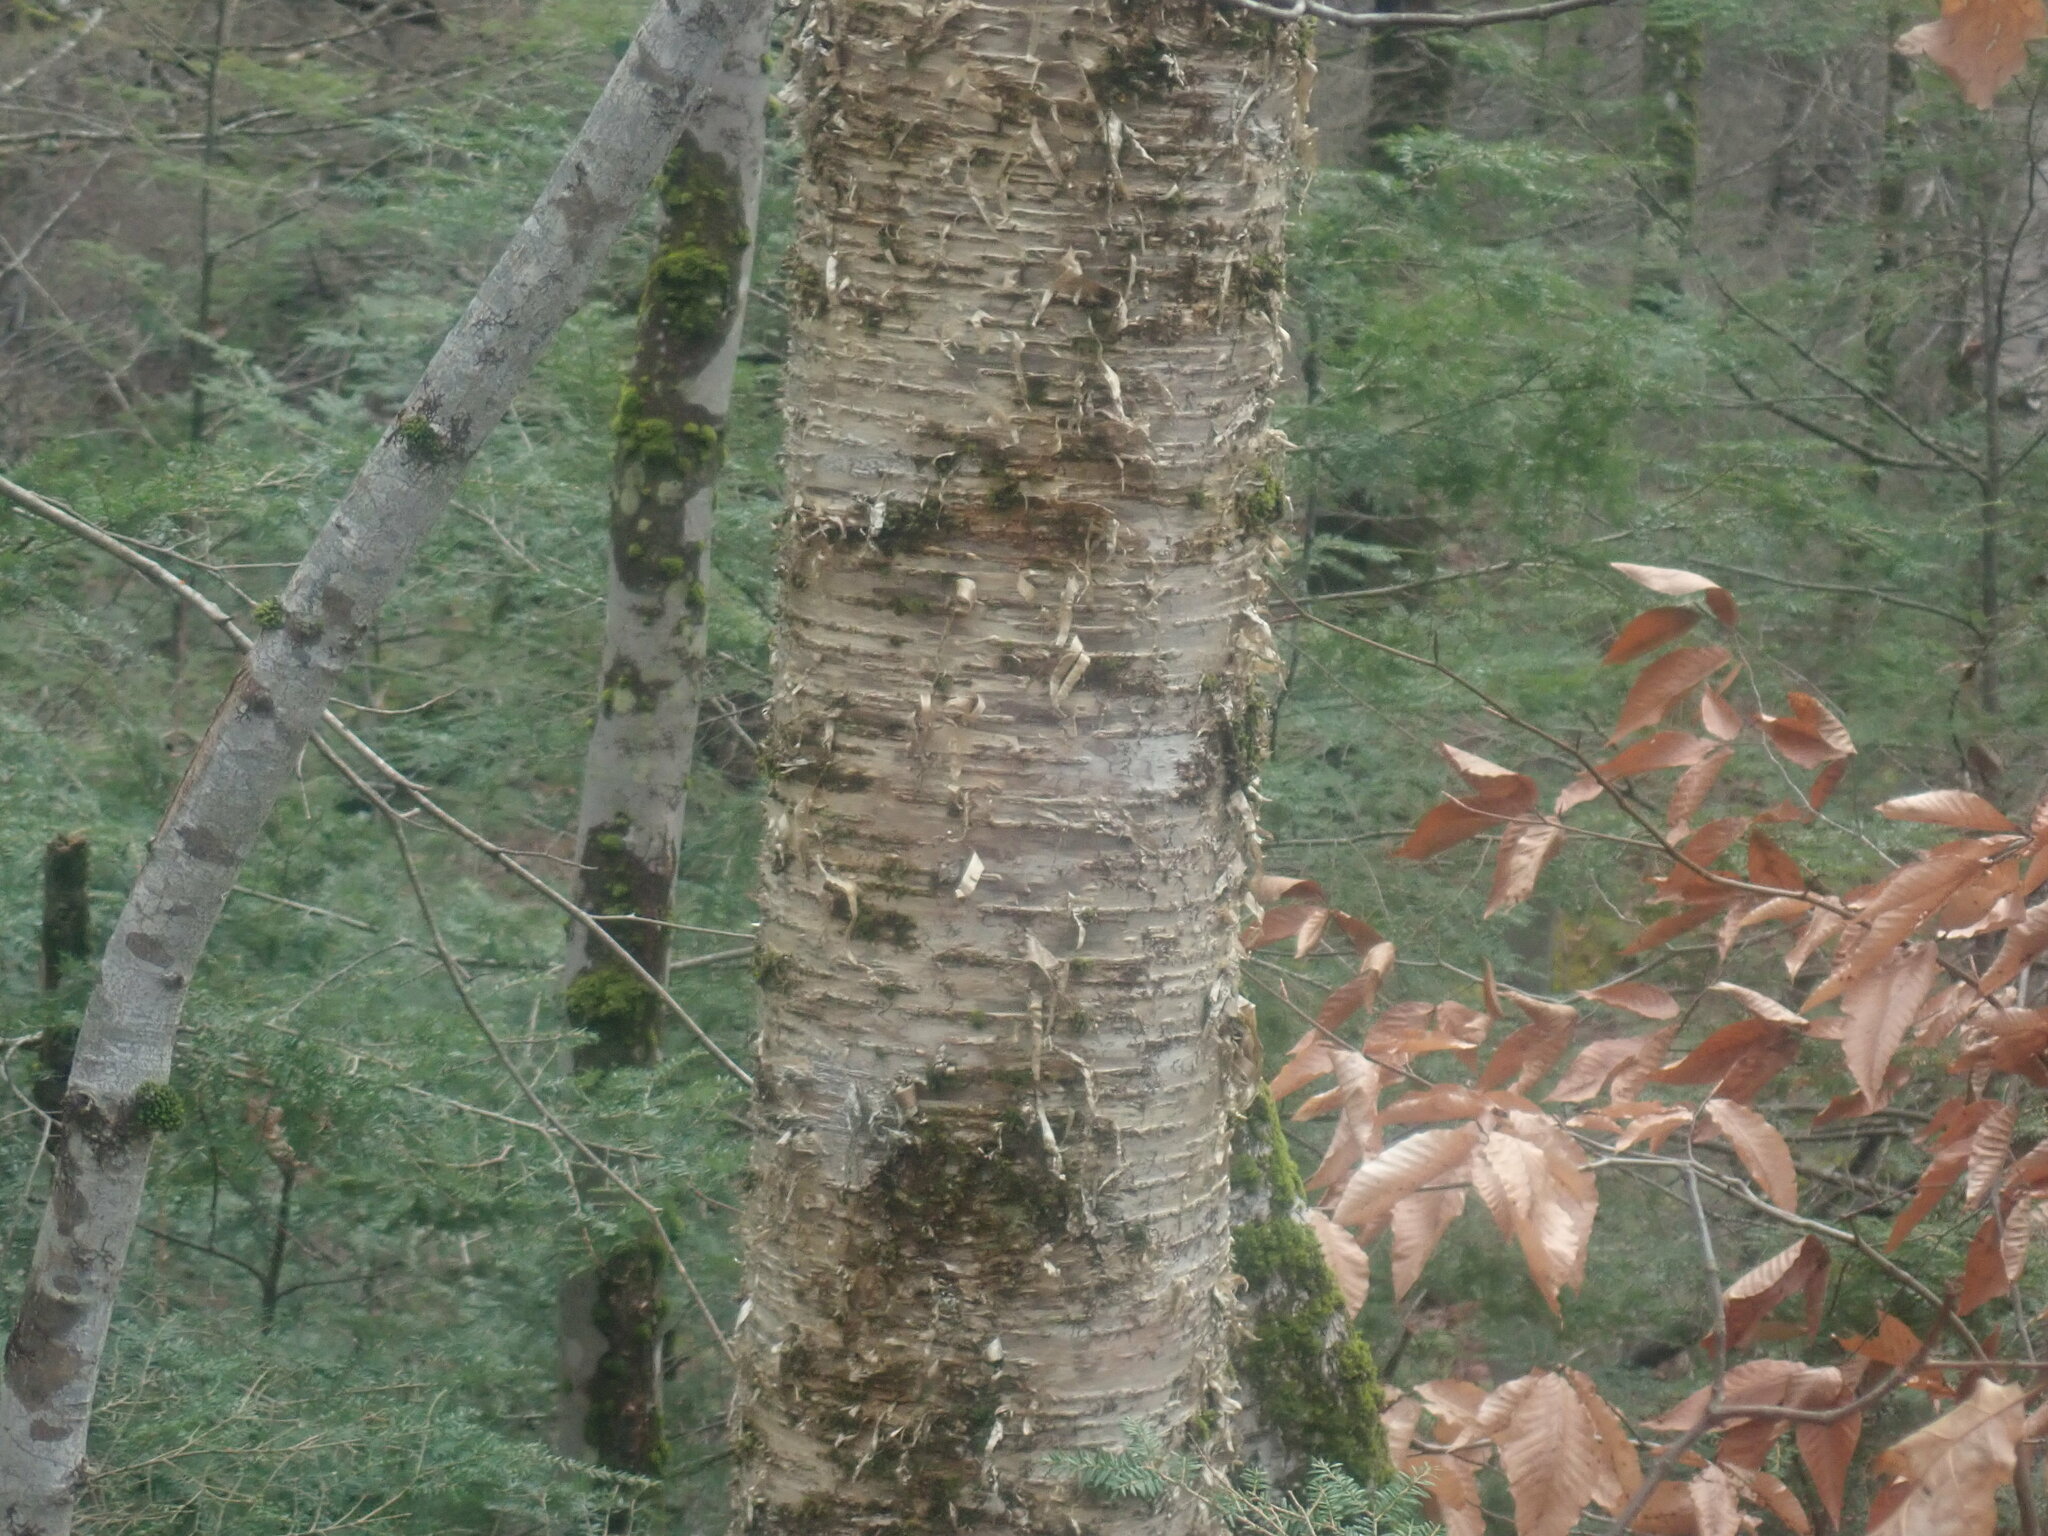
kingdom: Plantae
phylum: Tracheophyta
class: Magnoliopsida
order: Fagales
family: Betulaceae
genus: Betula
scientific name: Betula alleghaniensis
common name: Yellow birch
